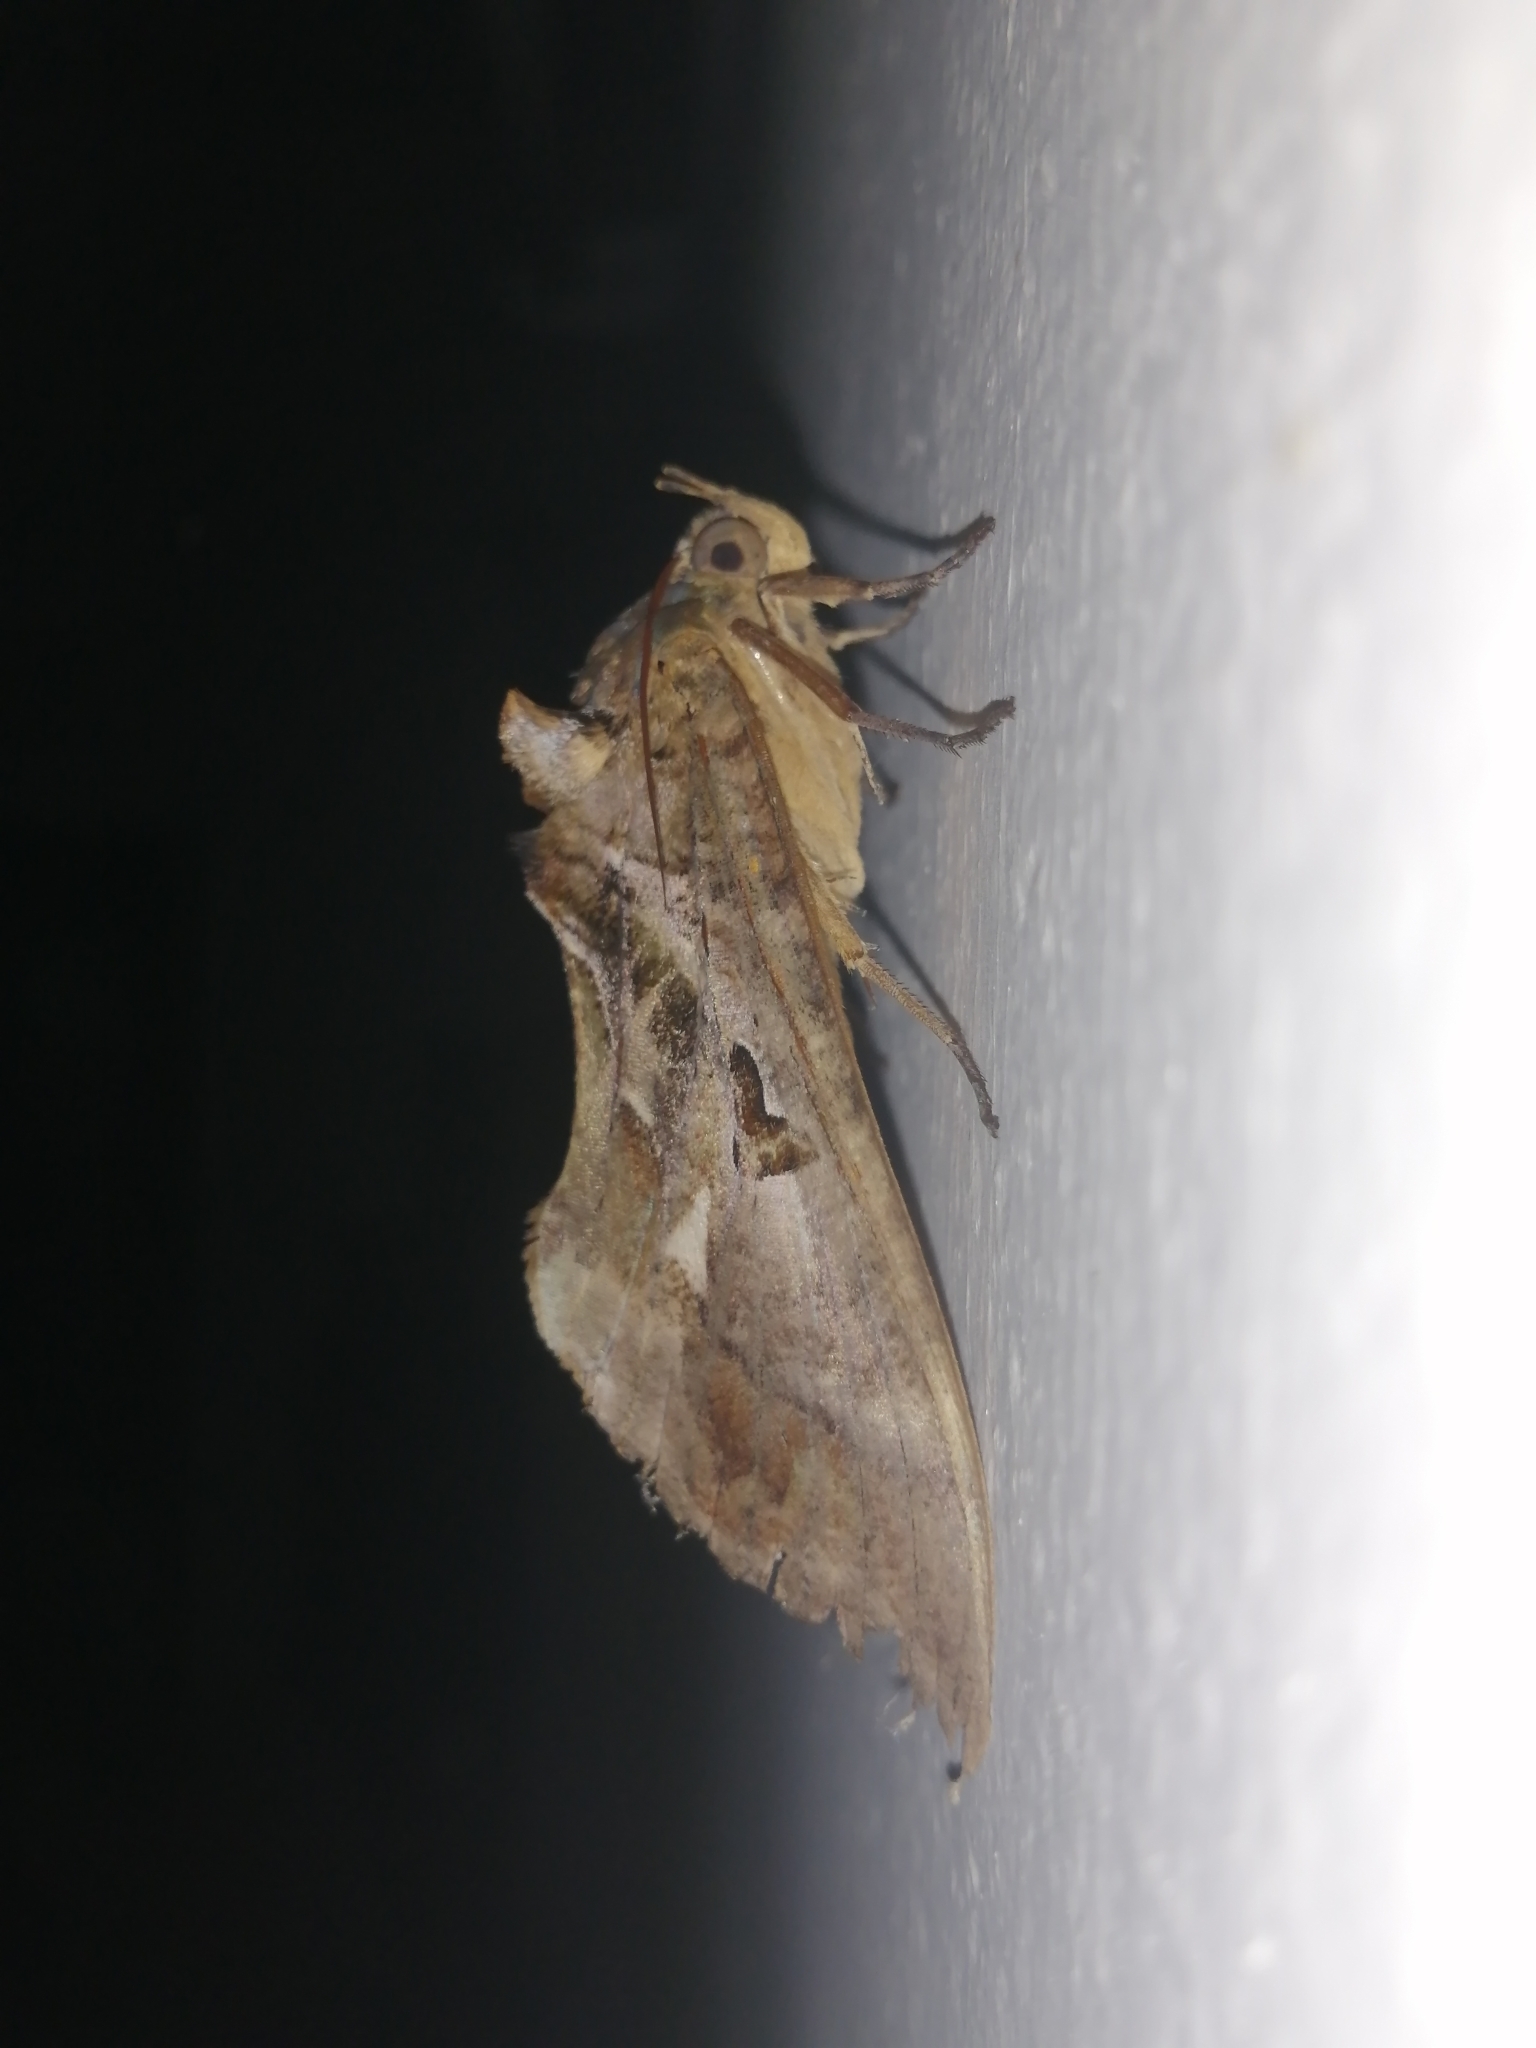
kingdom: Animalia
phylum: Arthropoda
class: Insecta
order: Lepidoptera
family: Erebidae
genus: Eudocima
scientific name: Eudocima phalonia
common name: Wasp
